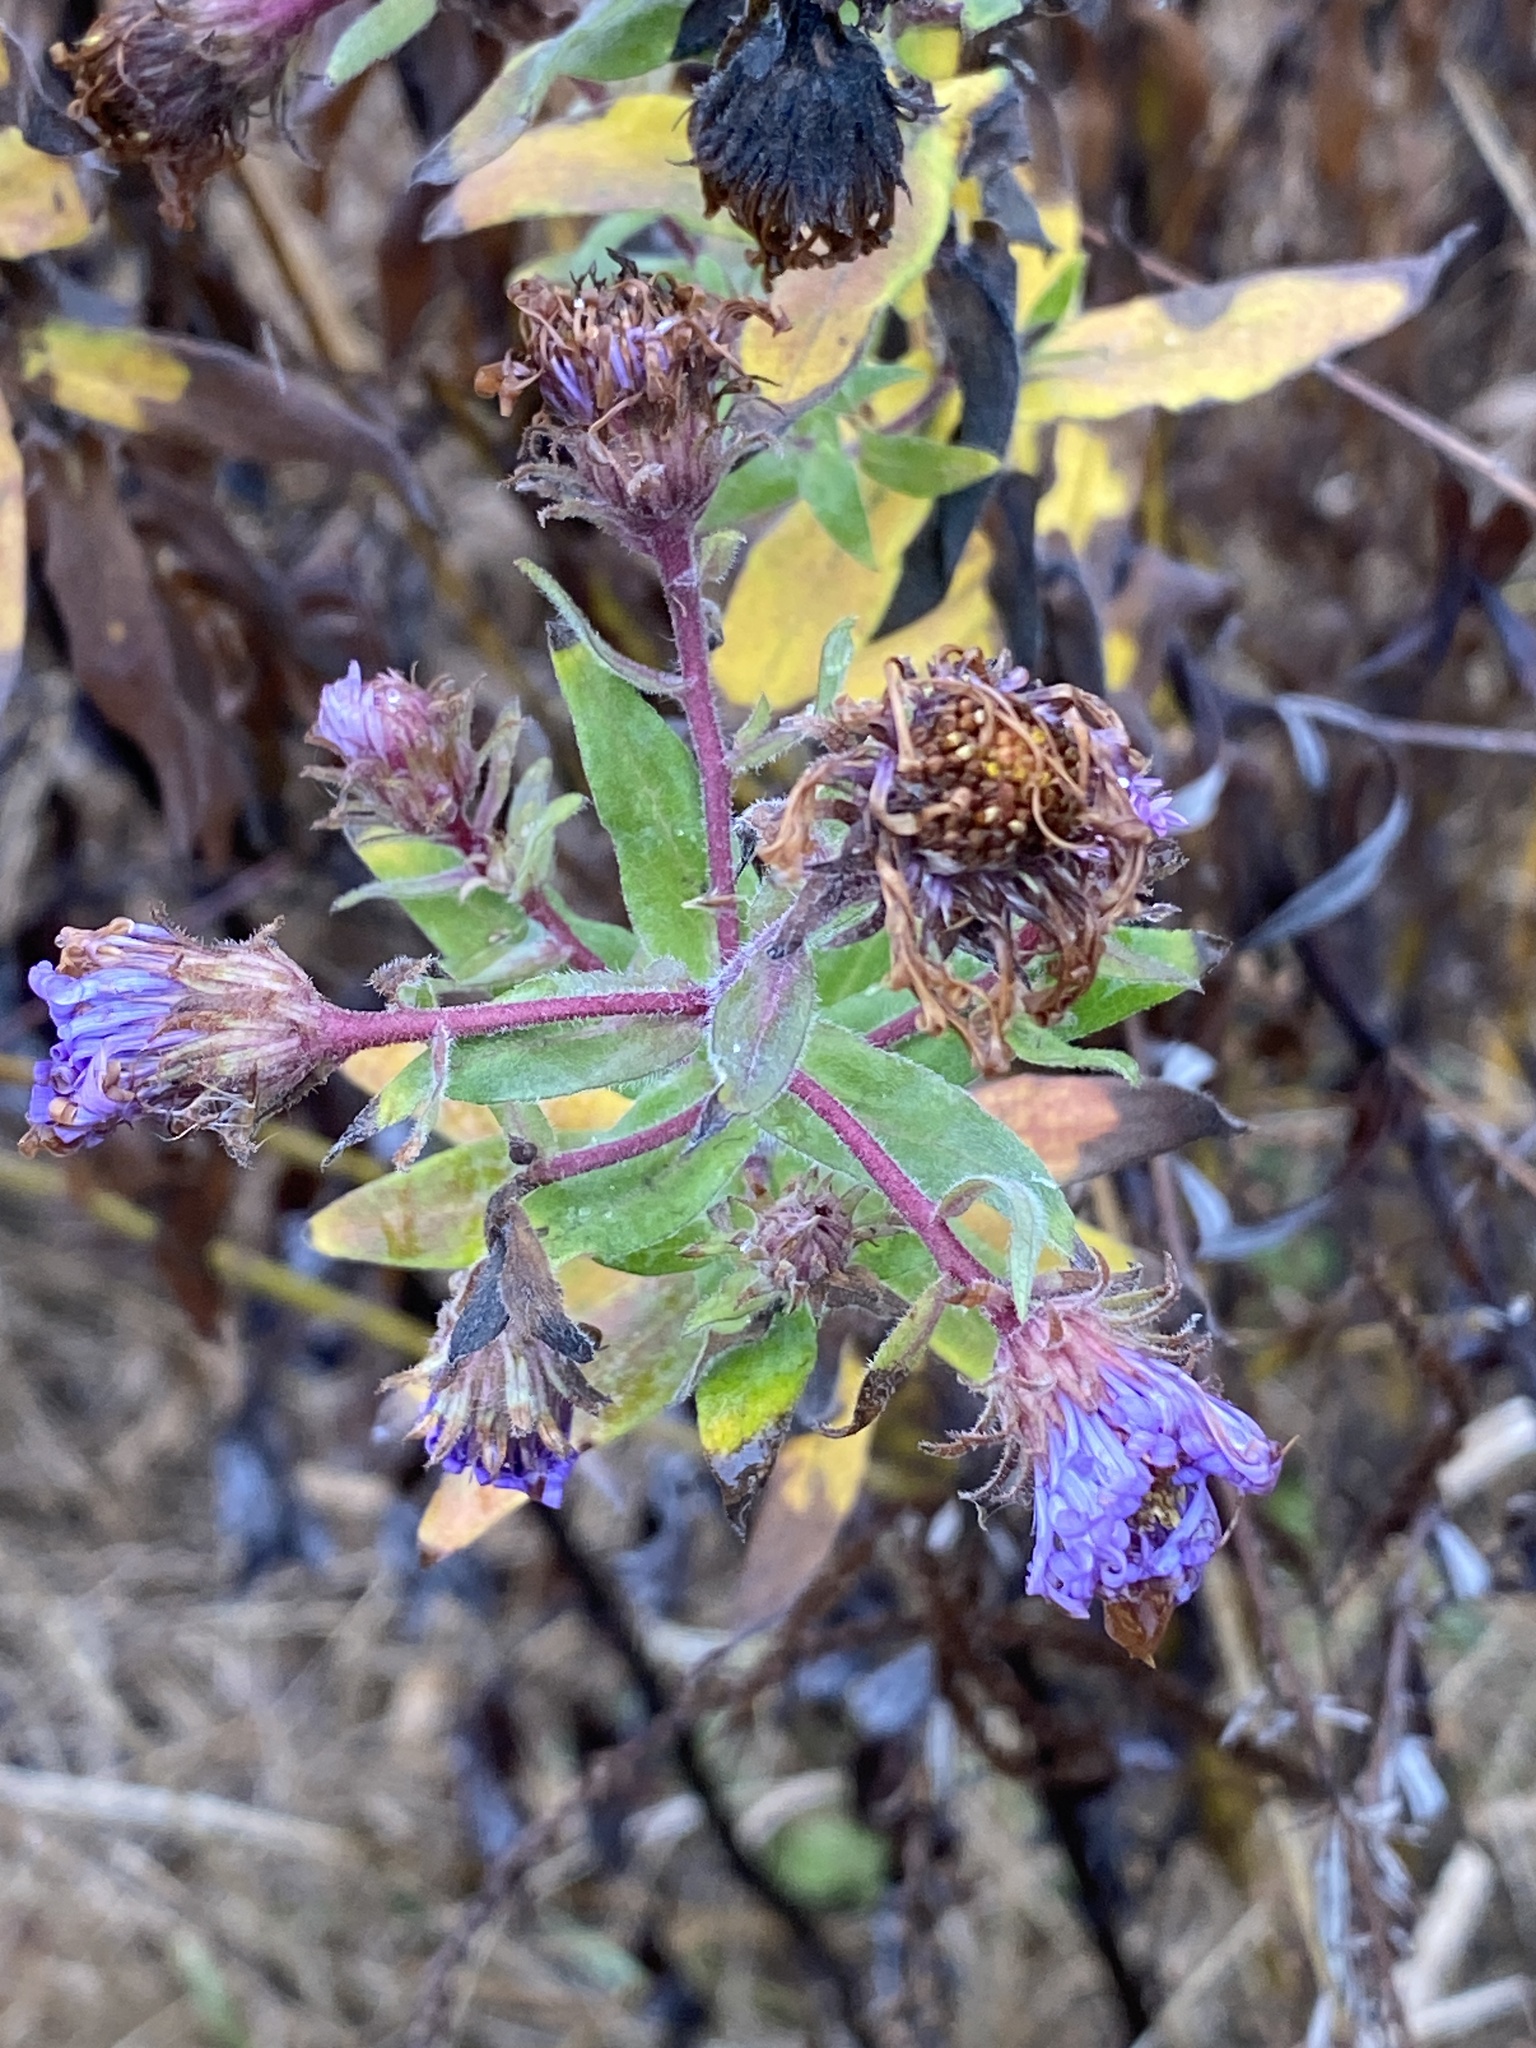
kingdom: Plantae
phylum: Tracheophyta
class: Magnoliopsida
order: Asterales
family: Asteraceae
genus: Symphyotrichum
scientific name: Symphyotrichum novae-angliae
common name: Michaelmas daisy
